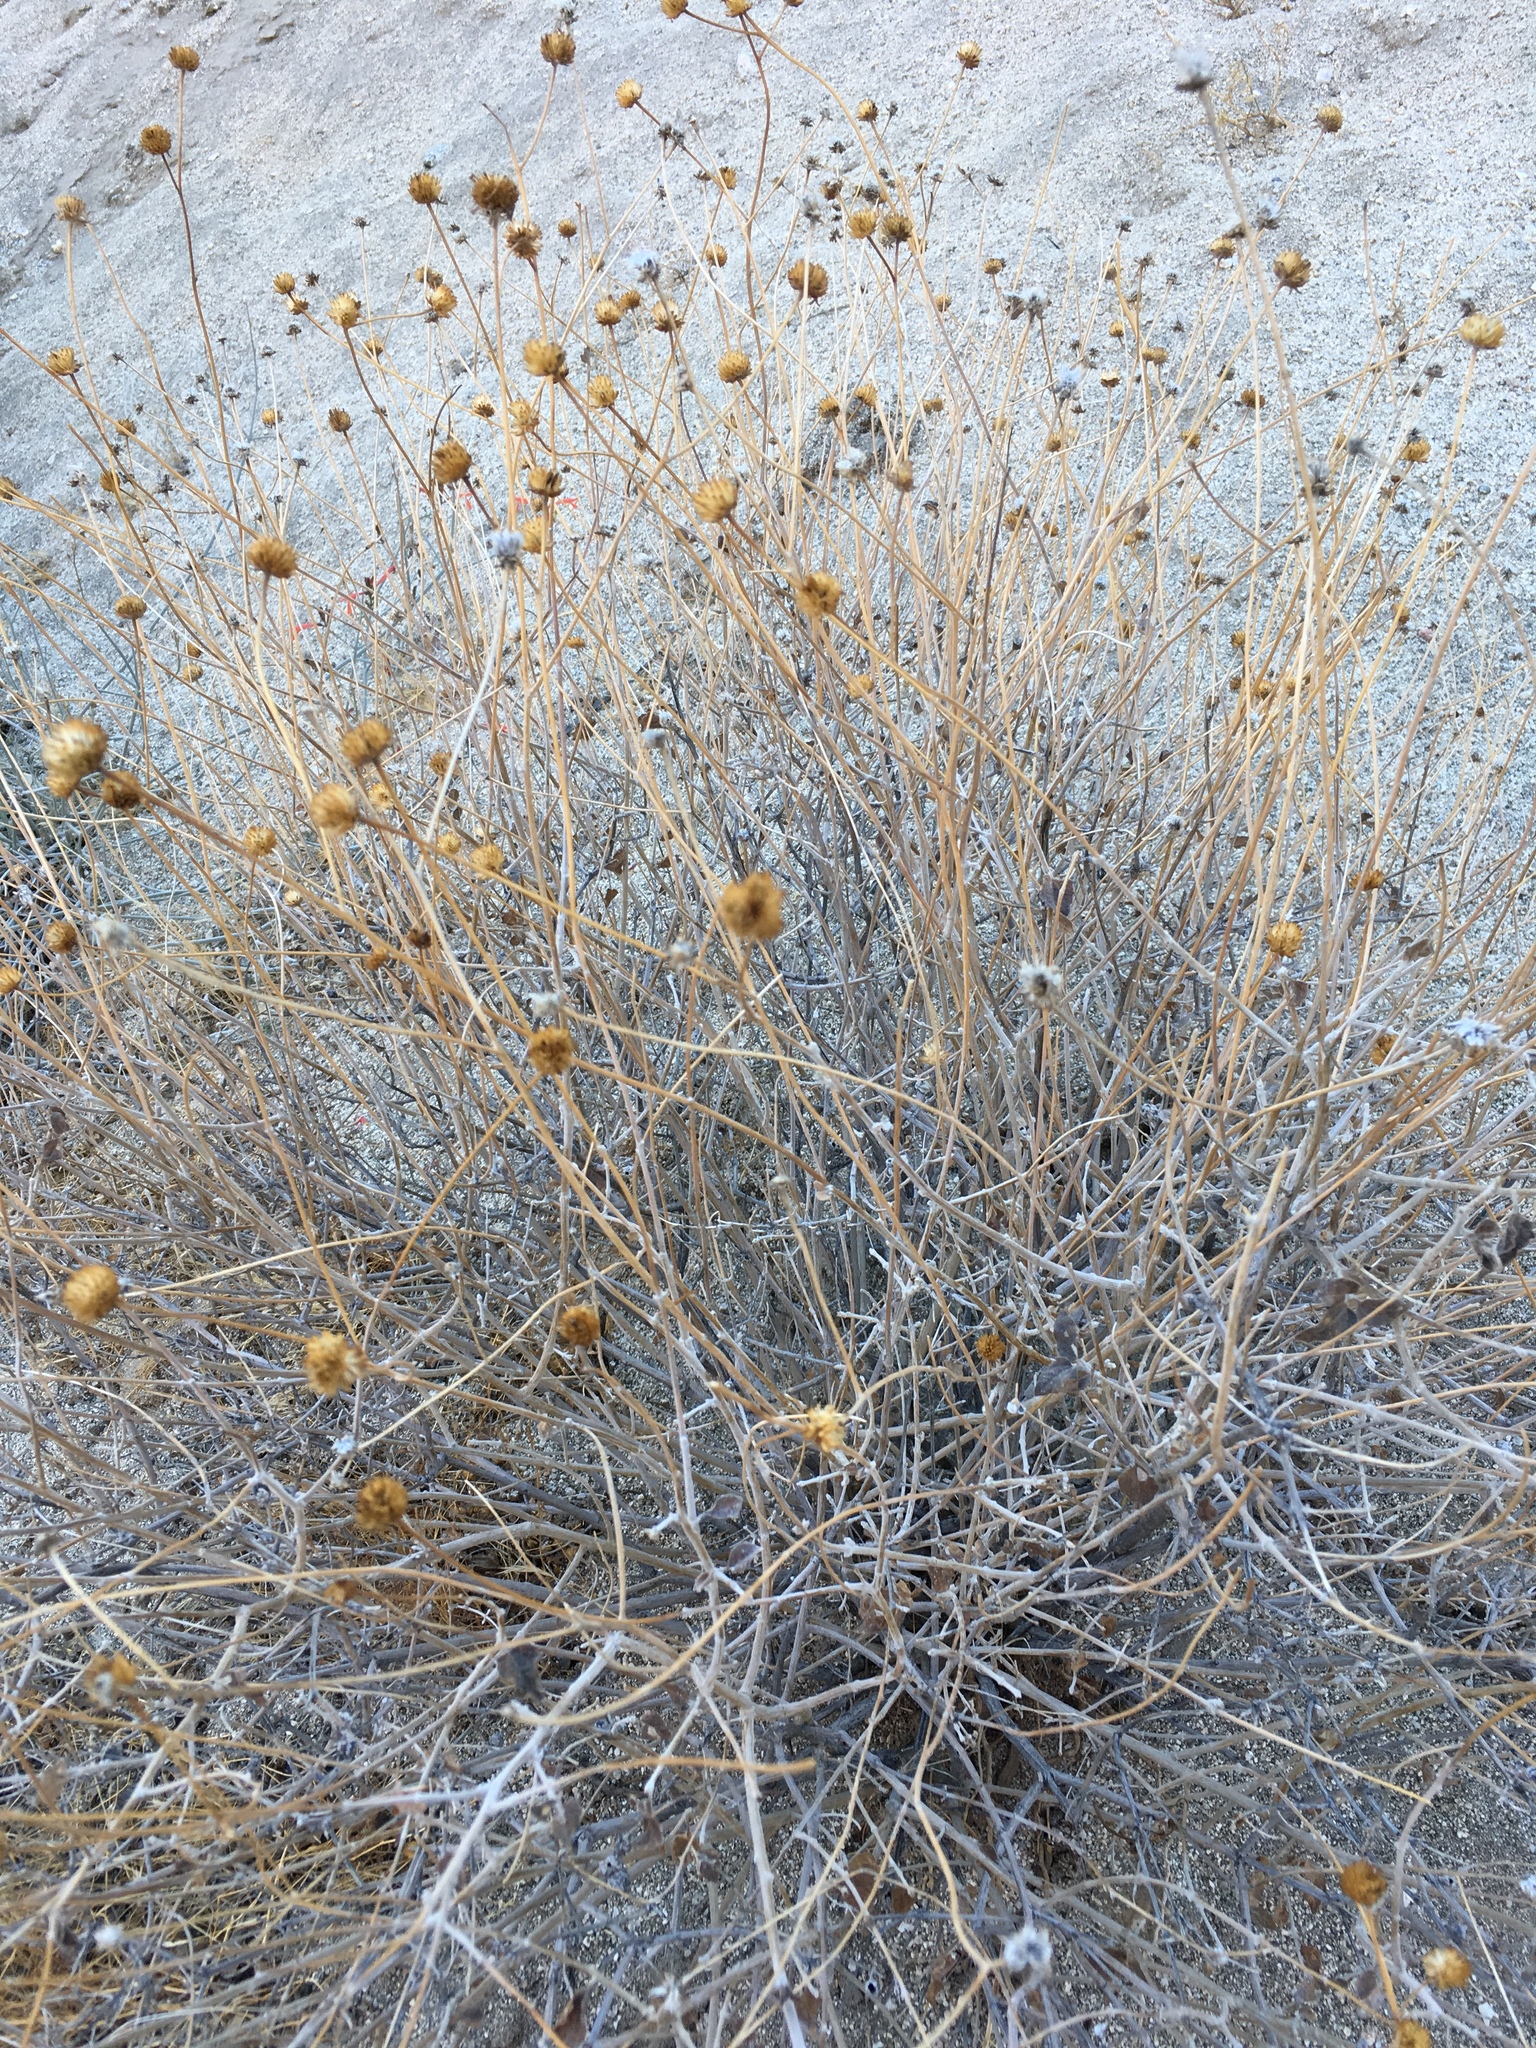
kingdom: Plantae
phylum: Tracheophyta
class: Magnoliopsida
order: Asterales
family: Asteraceae
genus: Bahiopsis
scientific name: Bahiopsis parishii
